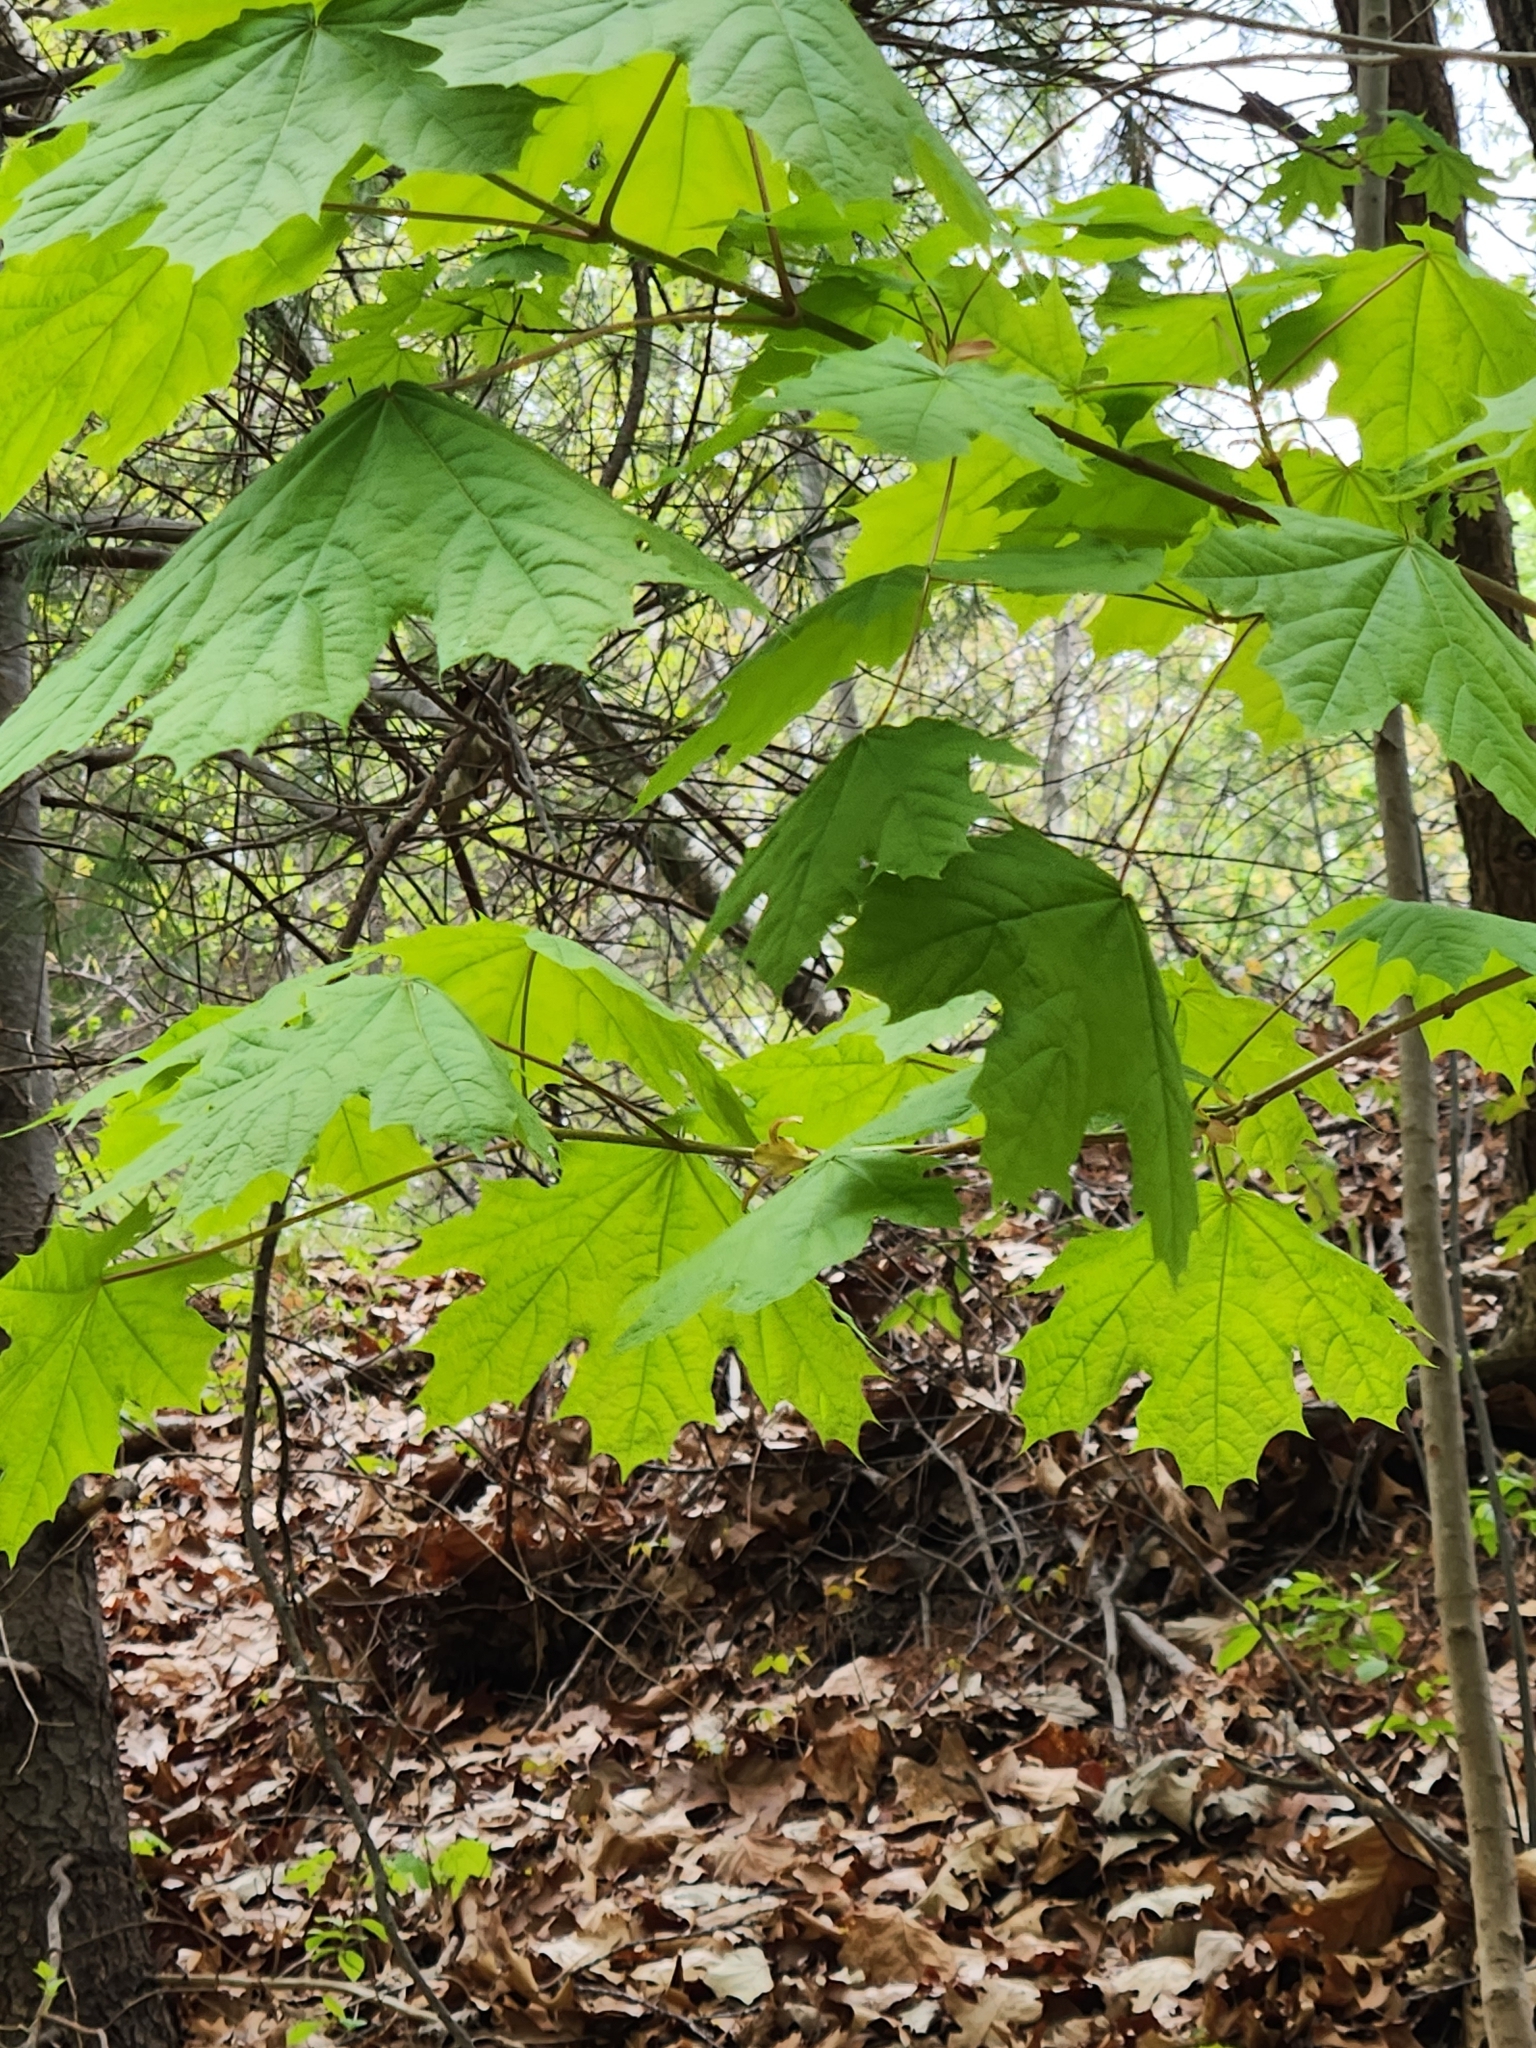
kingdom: Plantae
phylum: Tracheophyta
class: Magnoliopsida
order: Sapindales
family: Sapindaceae
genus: Acer
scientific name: Acer platanoides
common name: Norway maple
